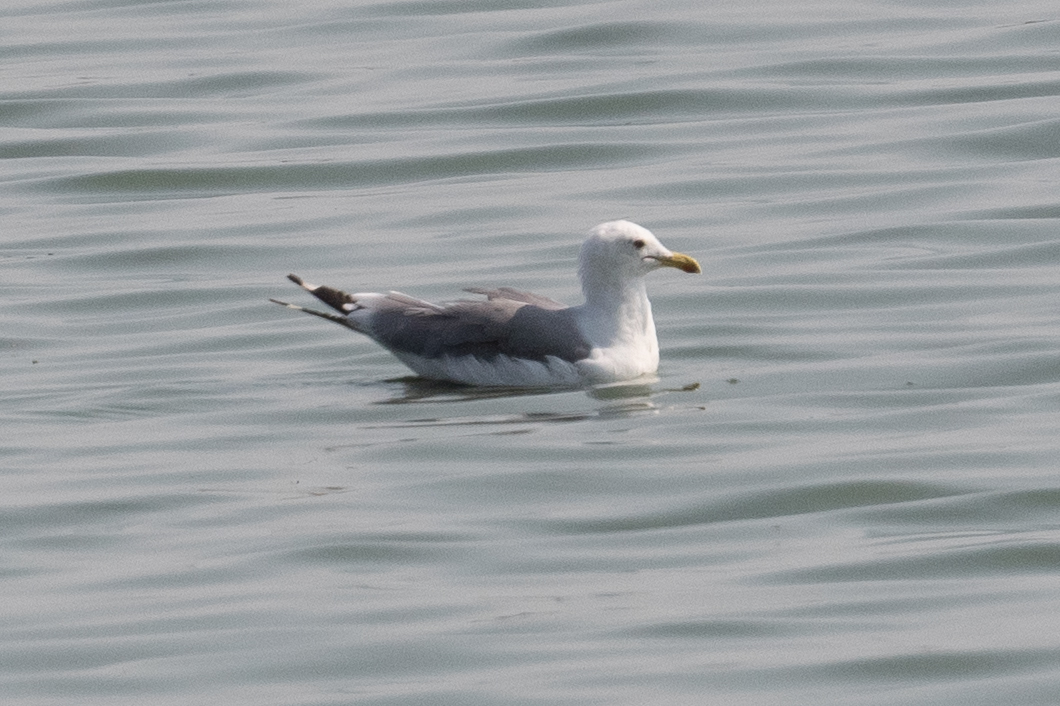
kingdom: Animalia
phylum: Chordata
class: Aves
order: Charadriiformes
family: Laridae
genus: Larus
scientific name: Larus californicus
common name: California gull
